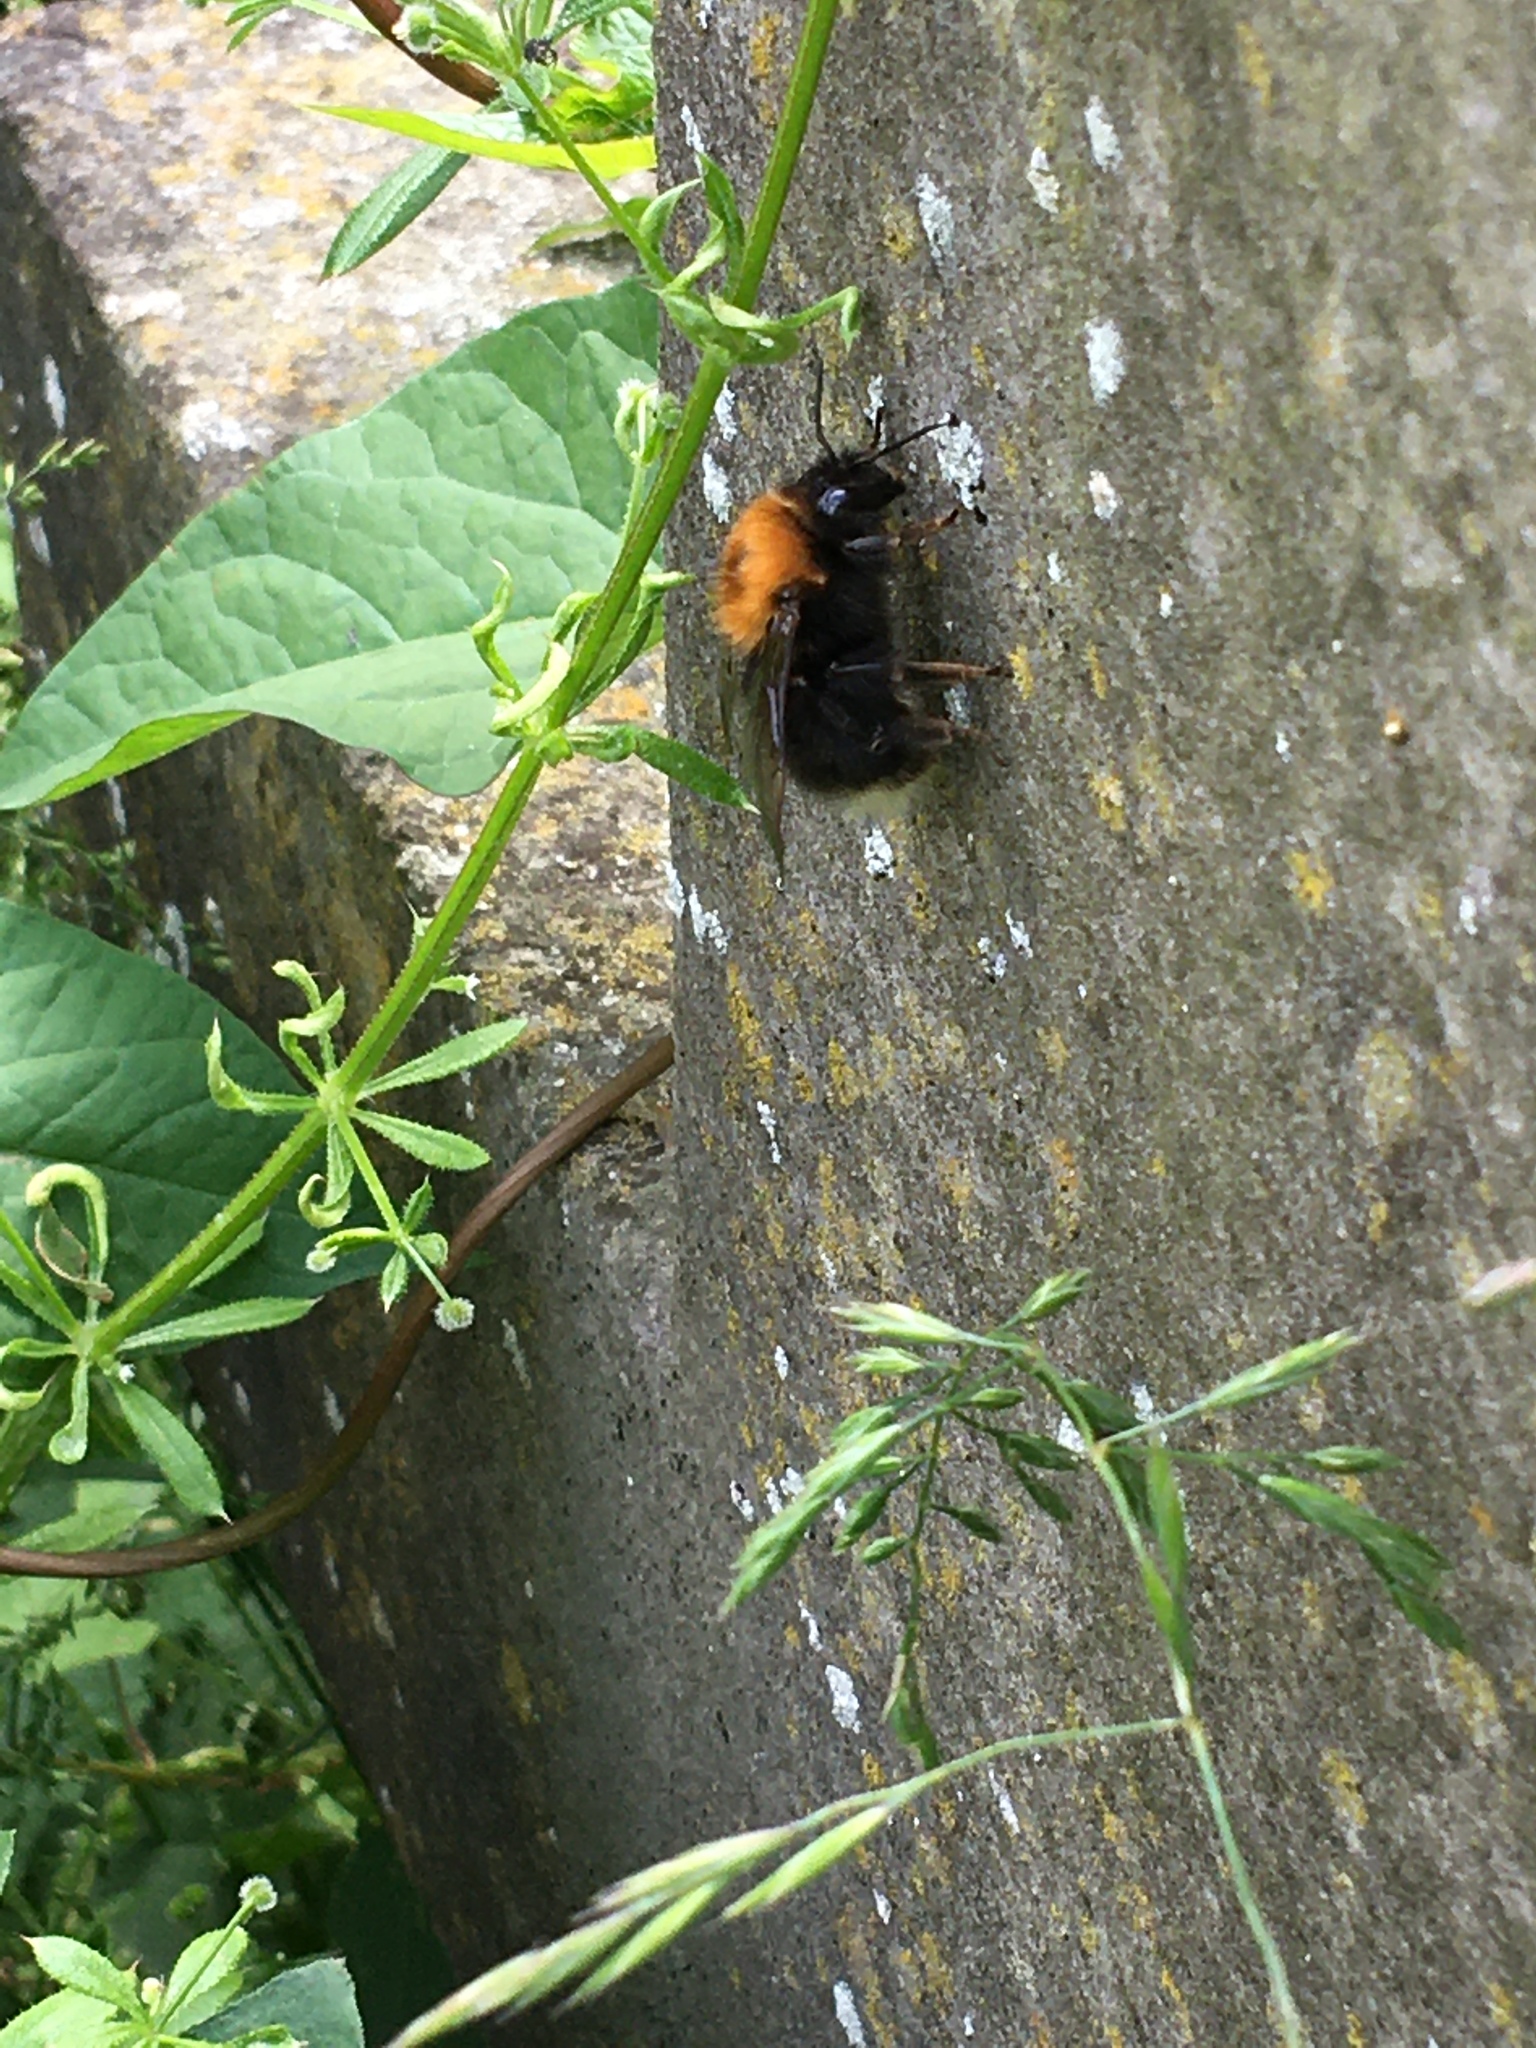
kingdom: Animalia
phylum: Arthropoda
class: Insecta
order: Hymenoptera
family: Apidae
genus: Bombus
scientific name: Bombus hypnorum
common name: New garden bumblebee
